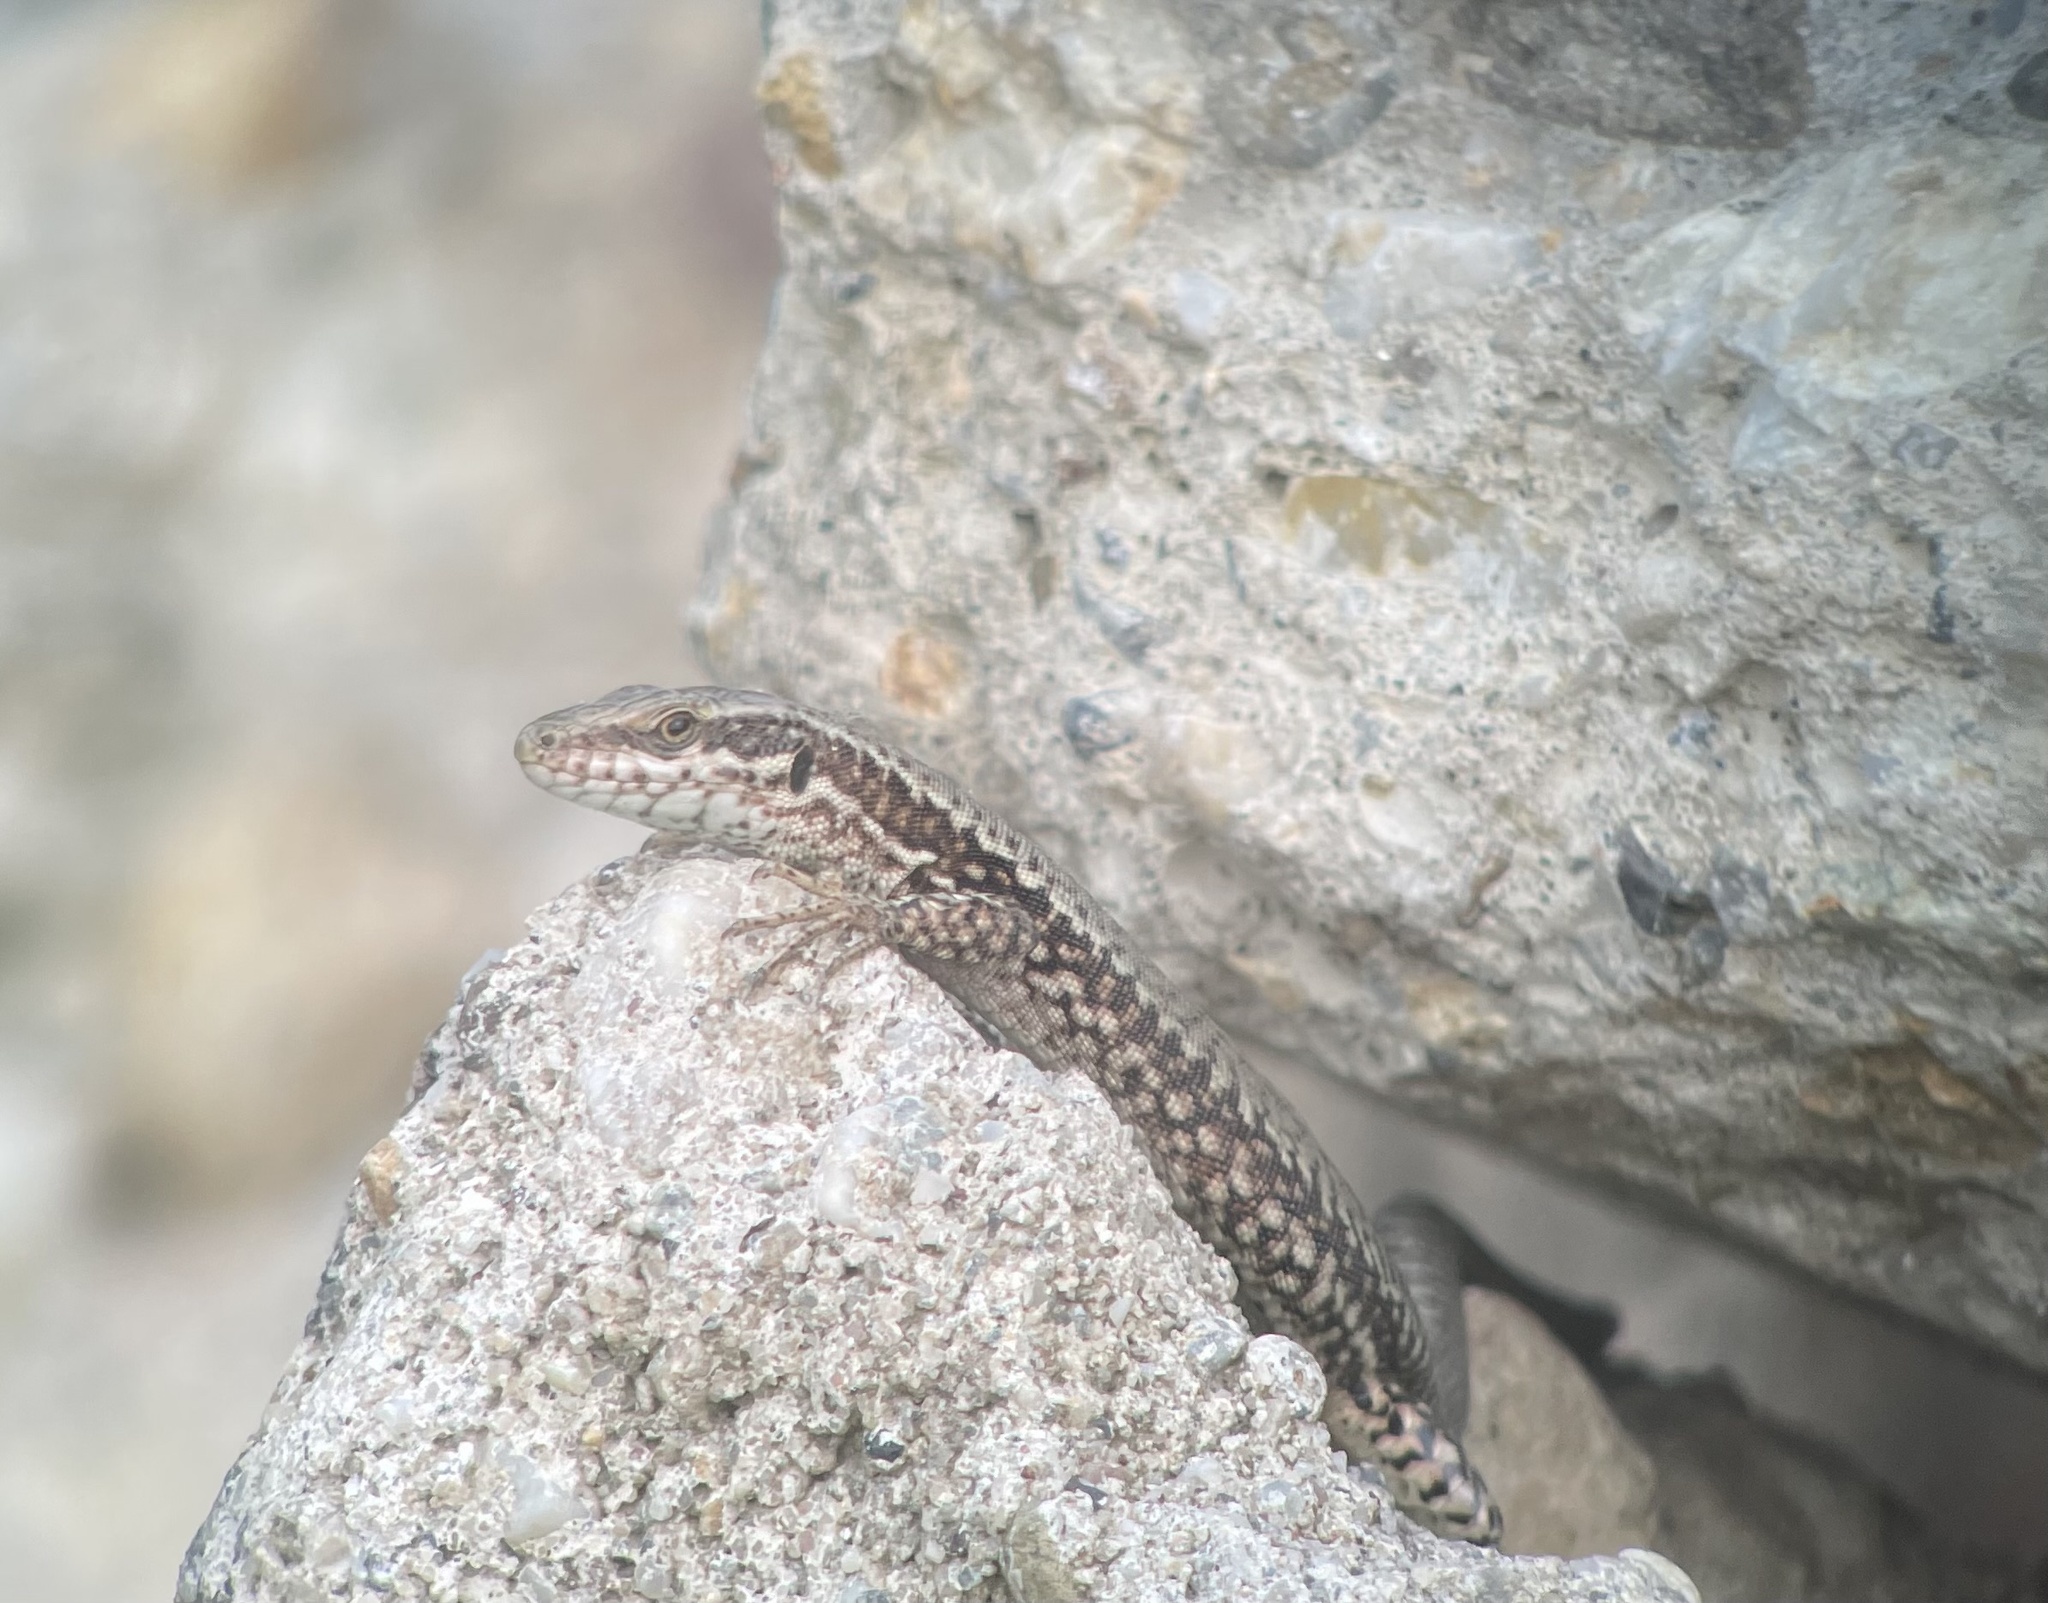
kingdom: Animalia
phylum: Chordata
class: Squamata
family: Lacertidae
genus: Podarcis
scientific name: Podarcis muralis
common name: Common wall lizard
